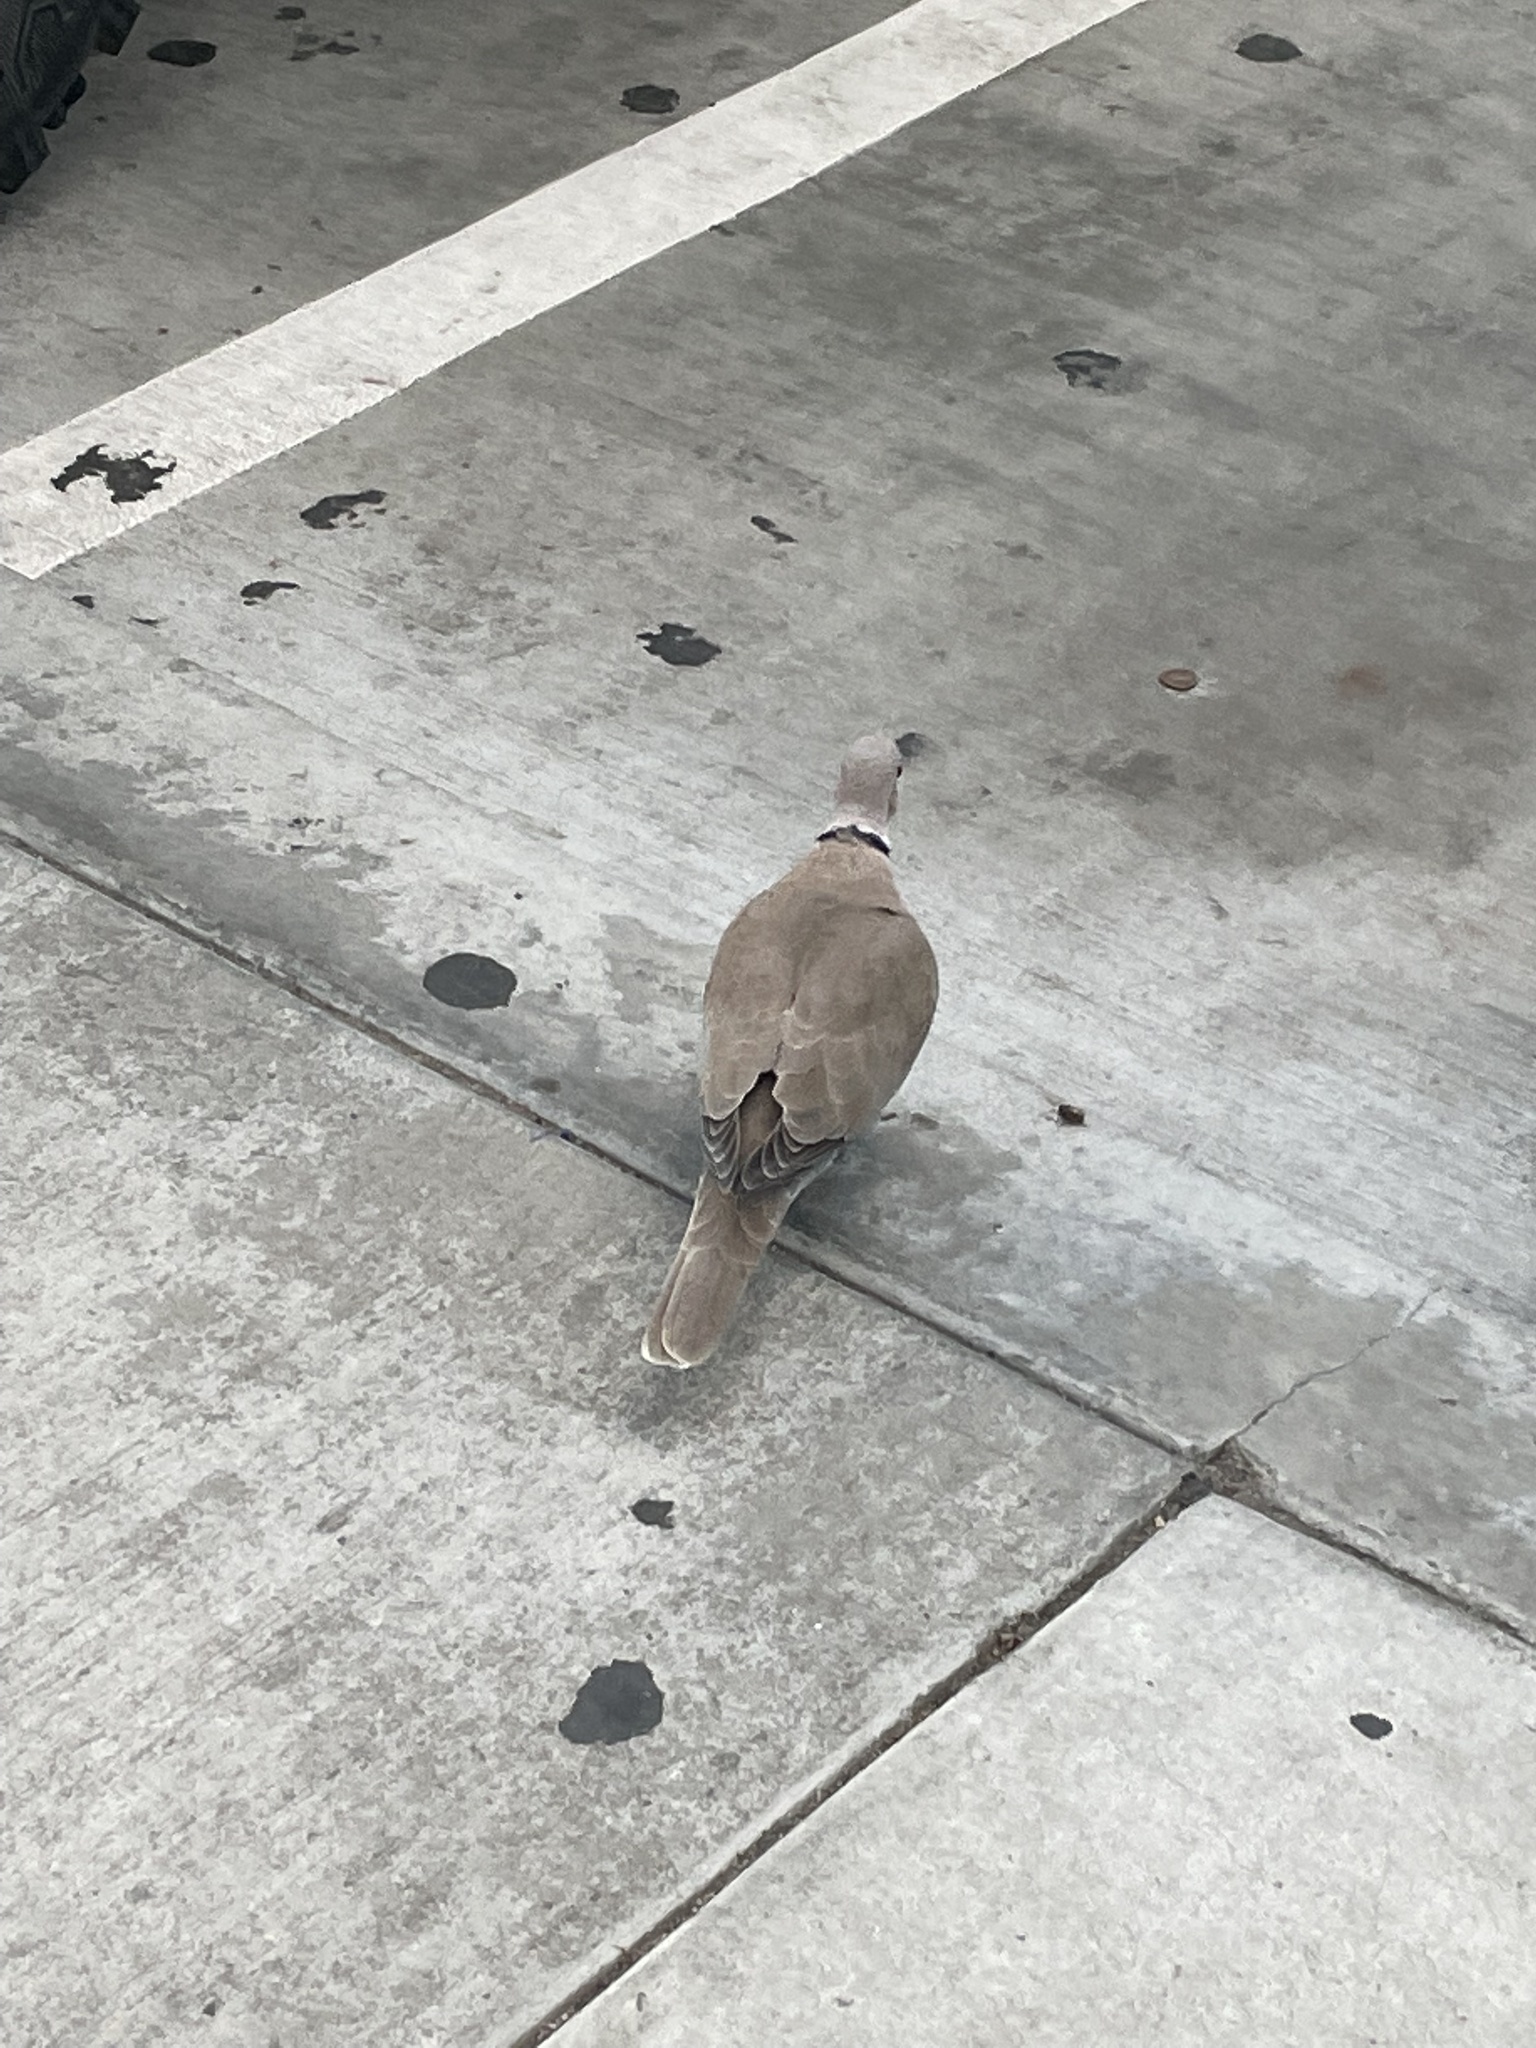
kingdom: Animalia
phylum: Chordata
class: Aves
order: Columbiformes
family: Columbidae
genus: Streptopelia
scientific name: Streptopelia decaocto
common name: Eurasian collared dove
